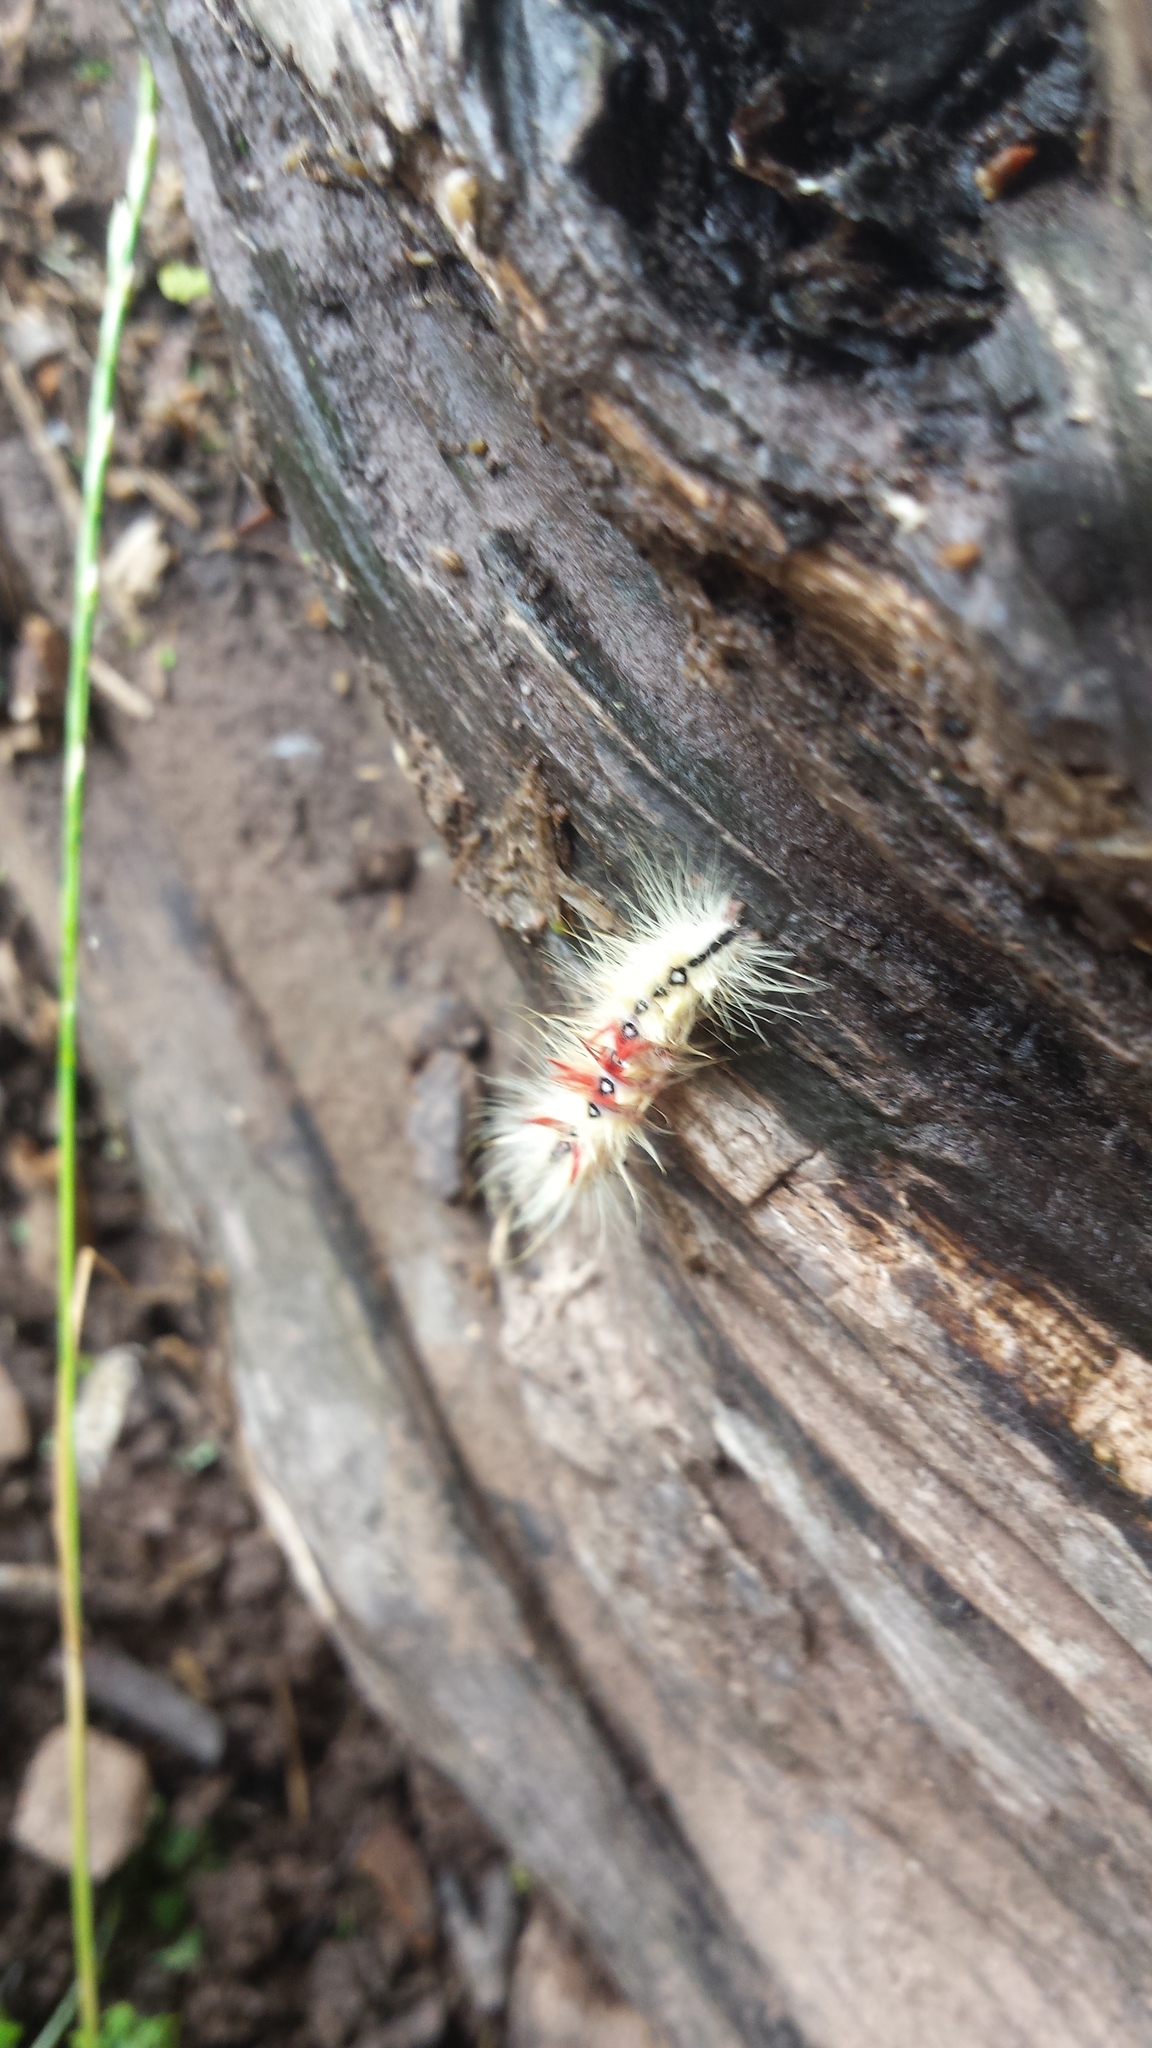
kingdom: Animalia
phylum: Arthropoda
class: Insecta
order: Lepidoptera
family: Noctuidae
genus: Acronicta
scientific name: Acronicta aceris
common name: Sycamore
